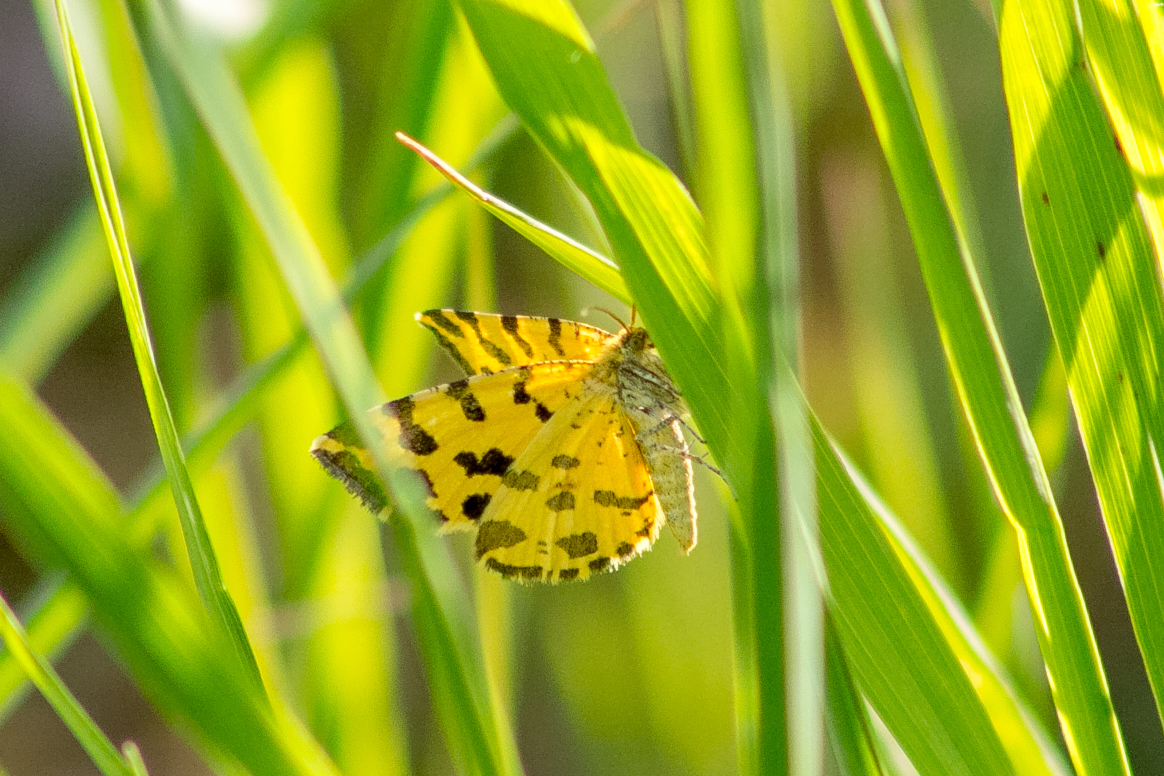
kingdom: Animalia
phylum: Arthropoda
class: Insecta
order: Lepidoptera
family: Geometridae
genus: Pseudopanthera
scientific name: Pseudopanthera macularia
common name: Speckled yellow
